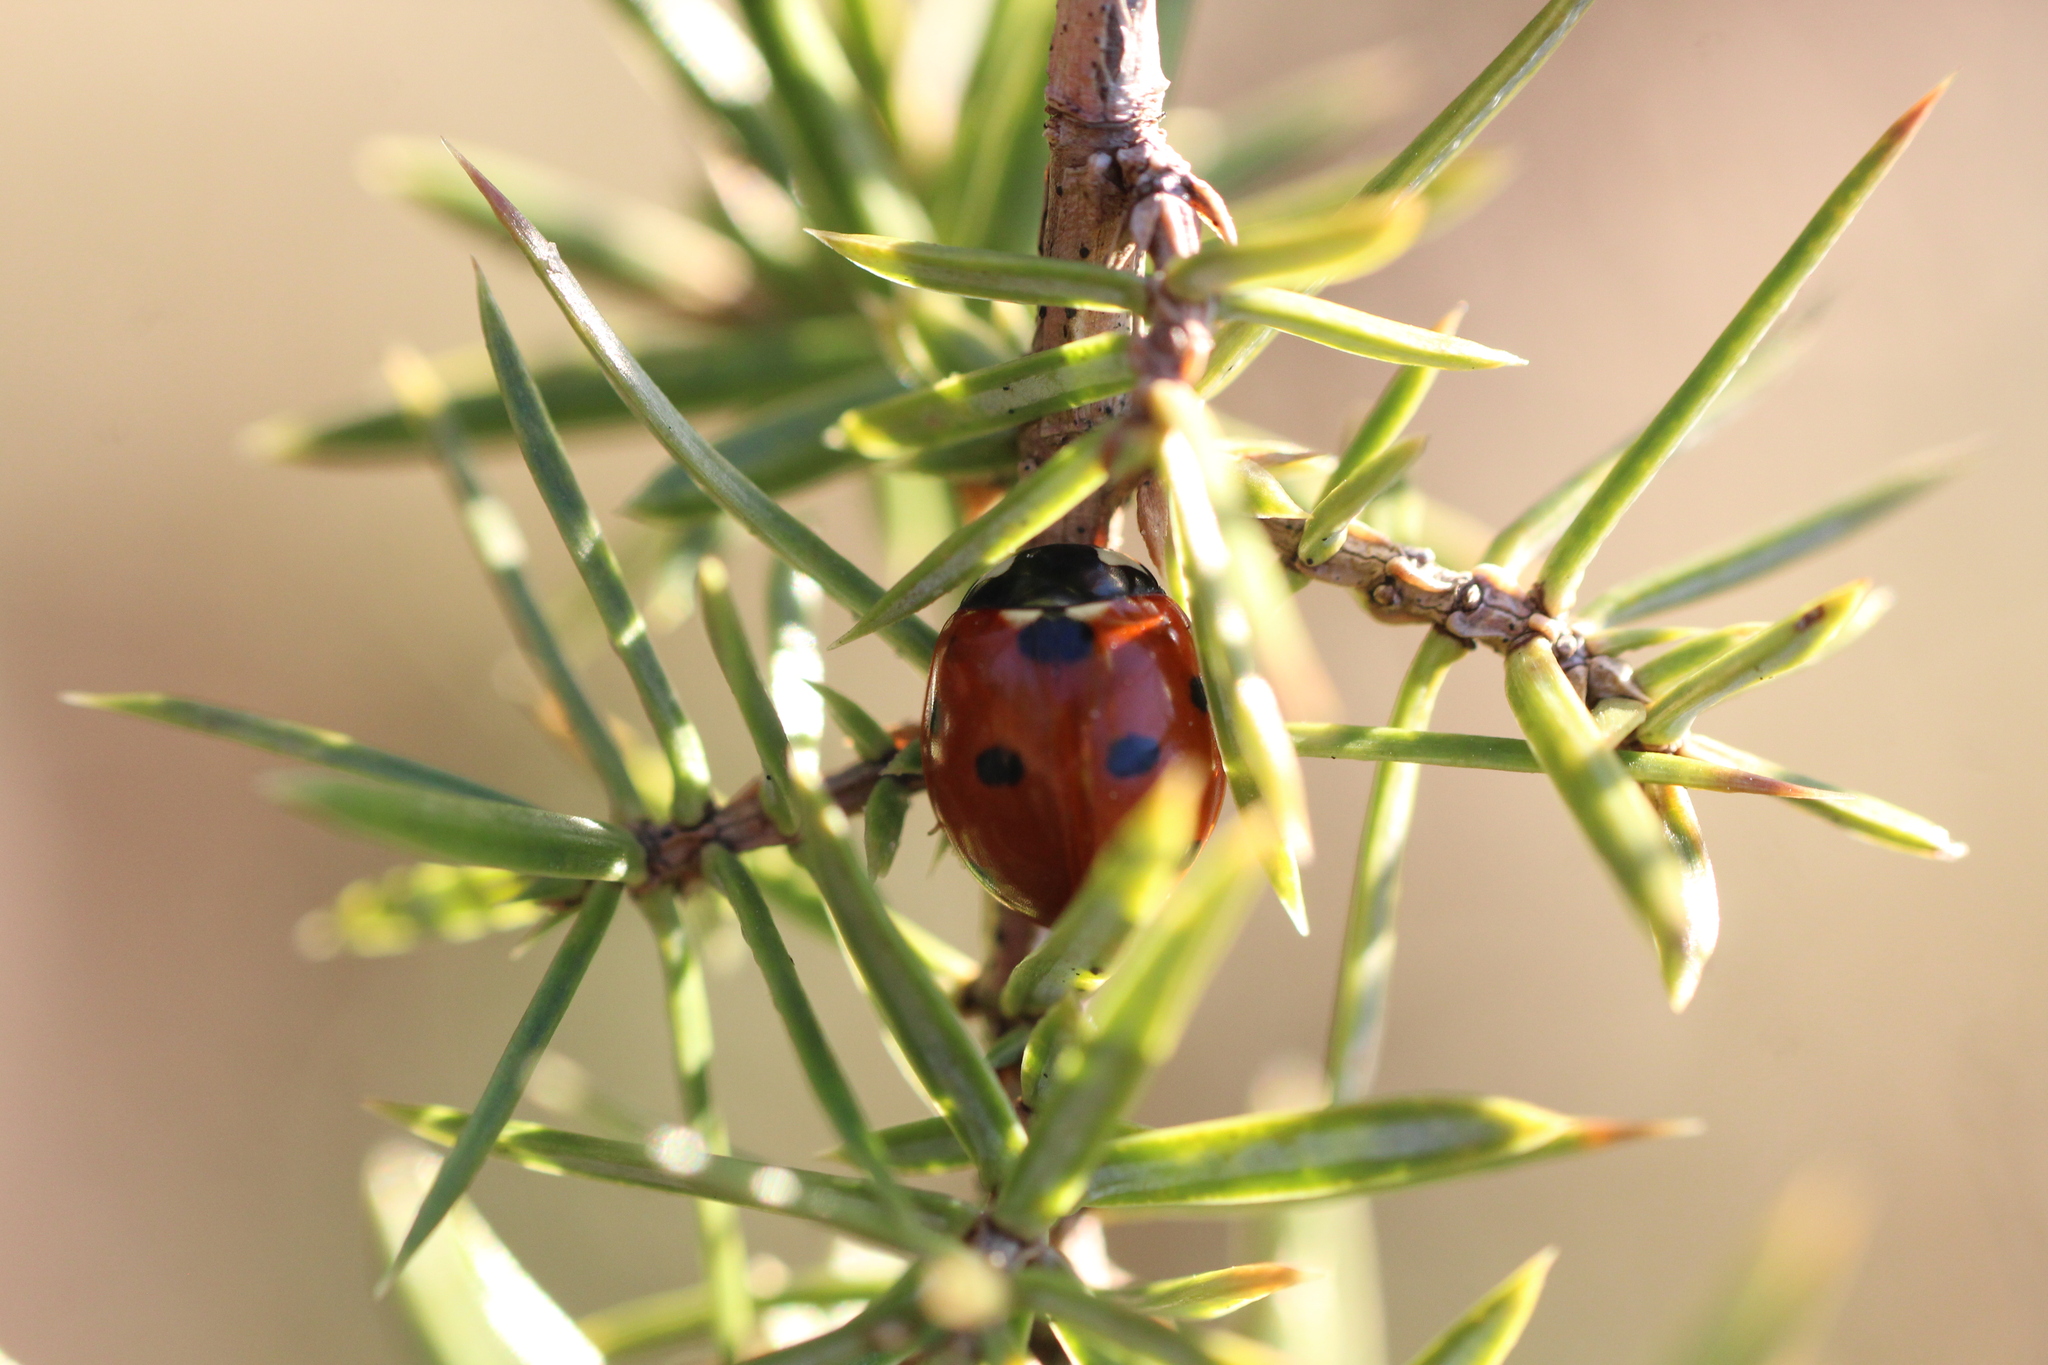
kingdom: Animalia
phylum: Arthropoda
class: Insecta
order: Coleoptera
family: Coccinellidae
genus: Coccinella
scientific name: Coccinella septempunctata
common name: Sevenspotted lady beetle
